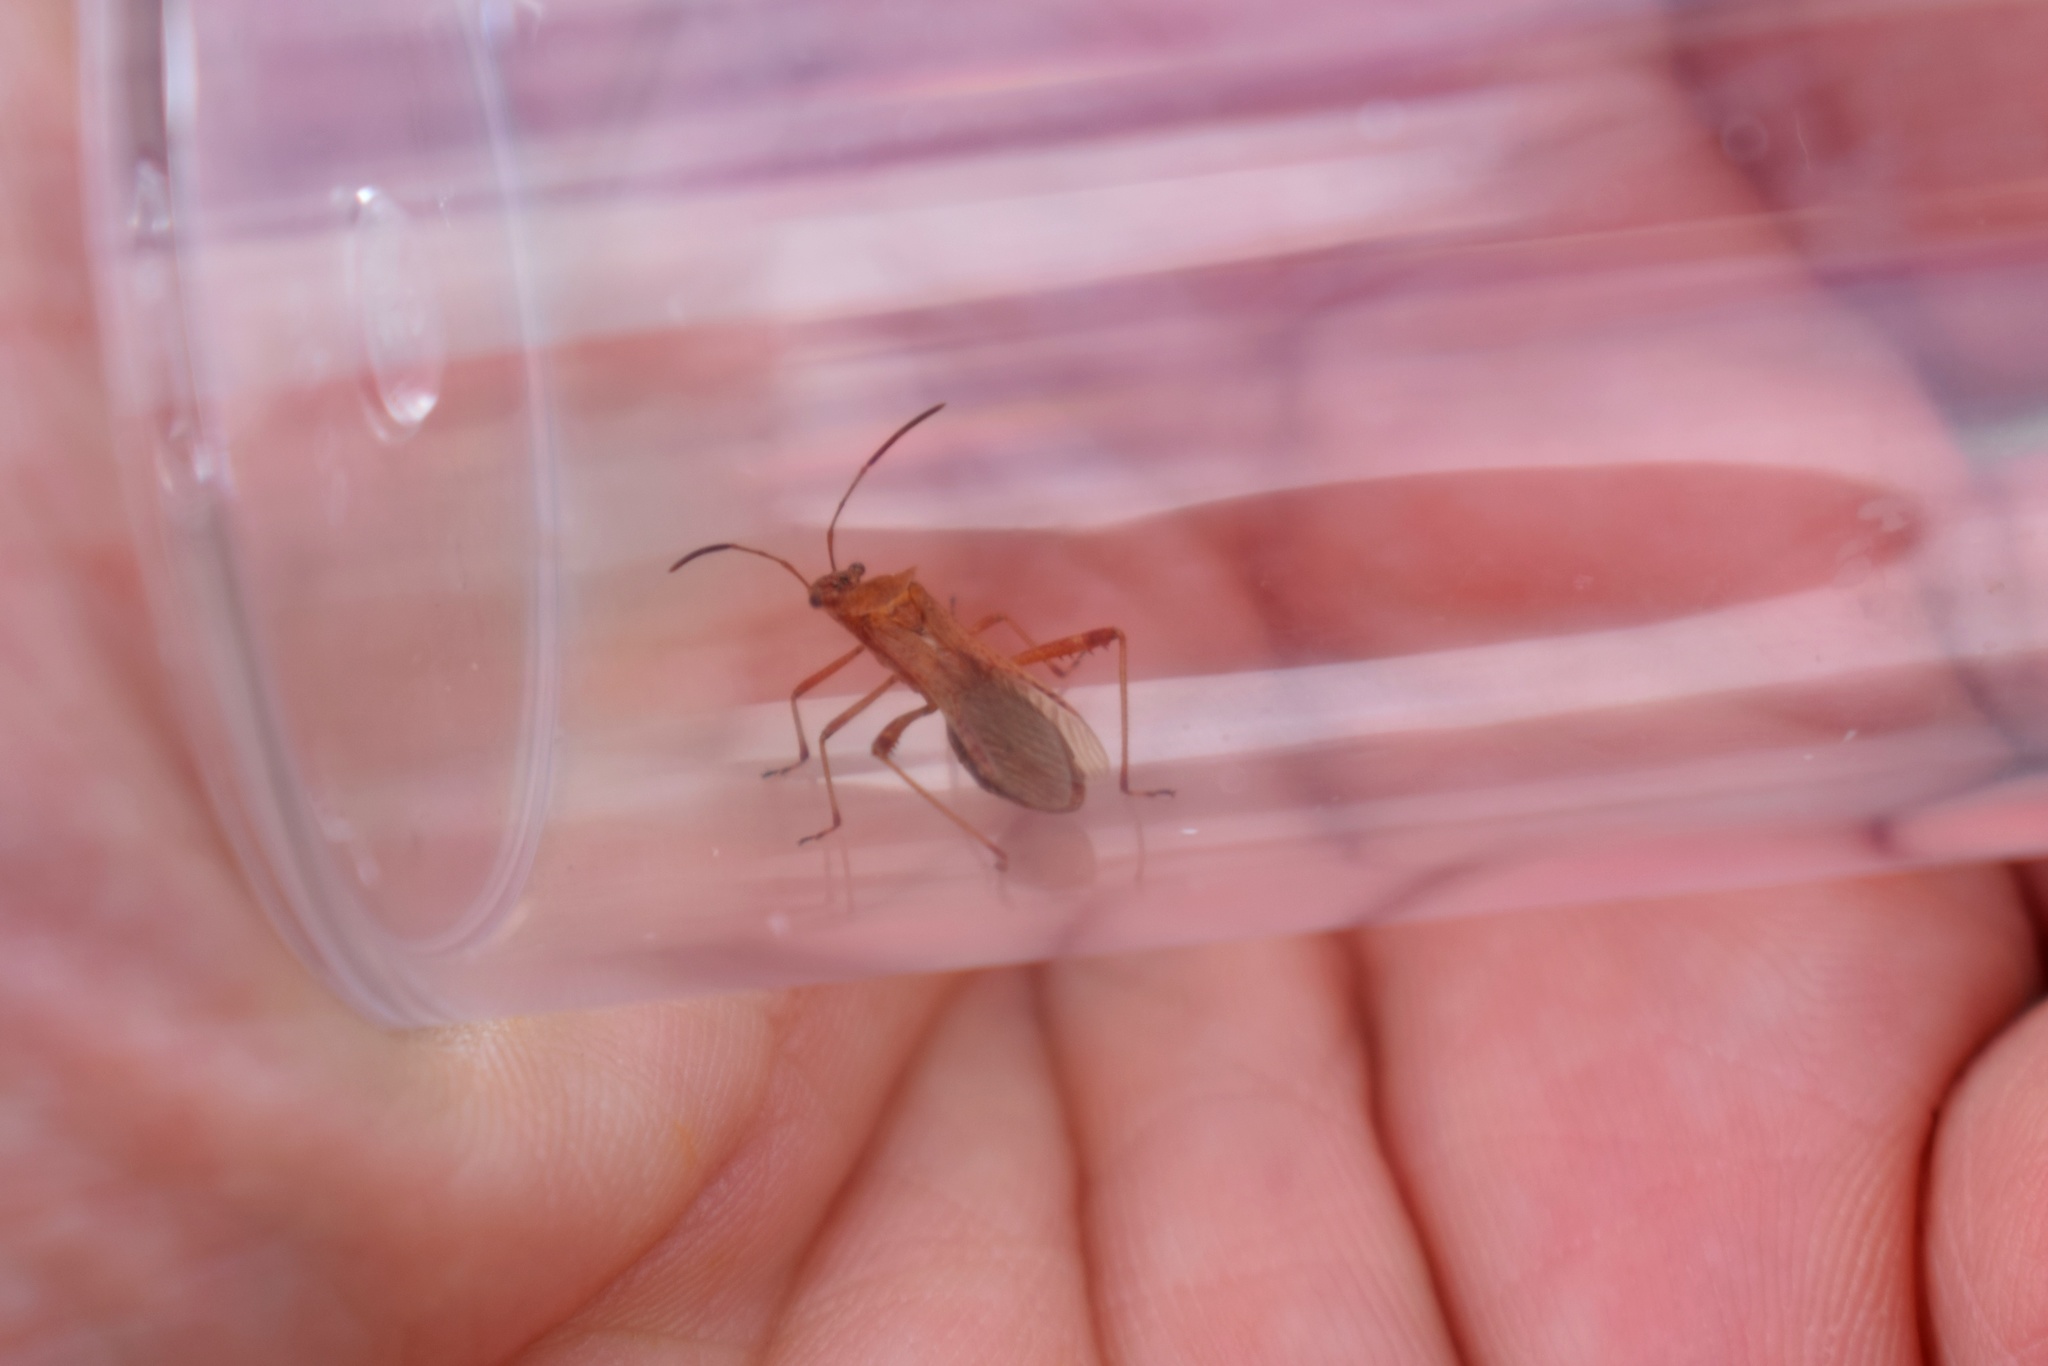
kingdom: Animalia
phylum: Arthropoda
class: Insecta
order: Hemiptera
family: Alydidae
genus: Neomegalotomus
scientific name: Neomegalotomus rufipes
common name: Broad-headed bug
